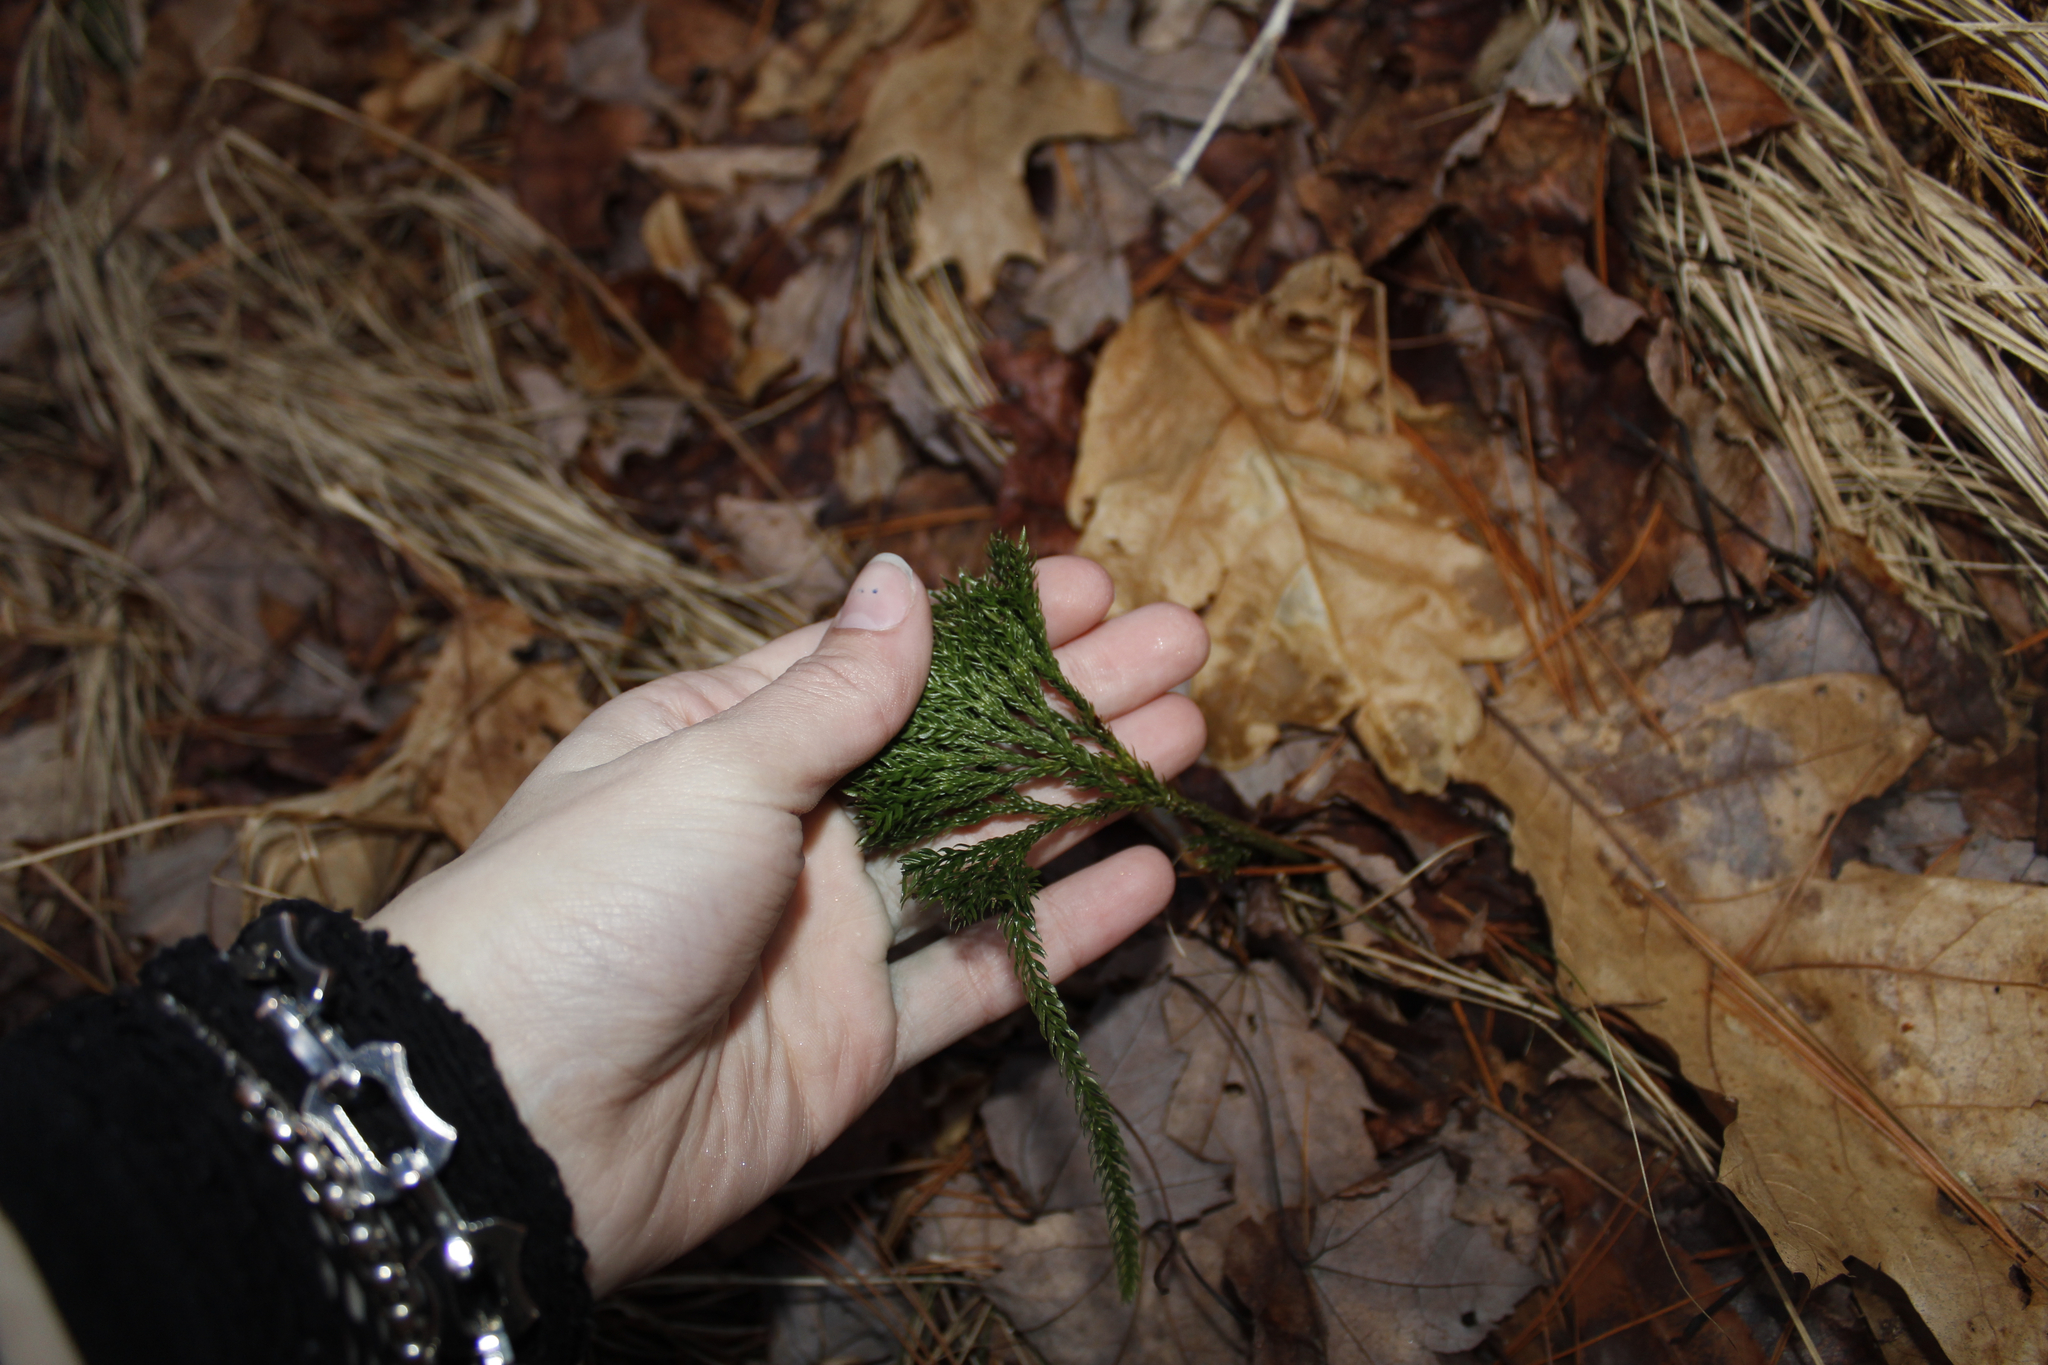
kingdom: Plantae
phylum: Tracheophyta
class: Lycopodiopsida
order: Lycopodiales
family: Lycopodiaceae
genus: Dendrolycopodium
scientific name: Dendrolycopodium obscurum
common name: Common ground-pine
